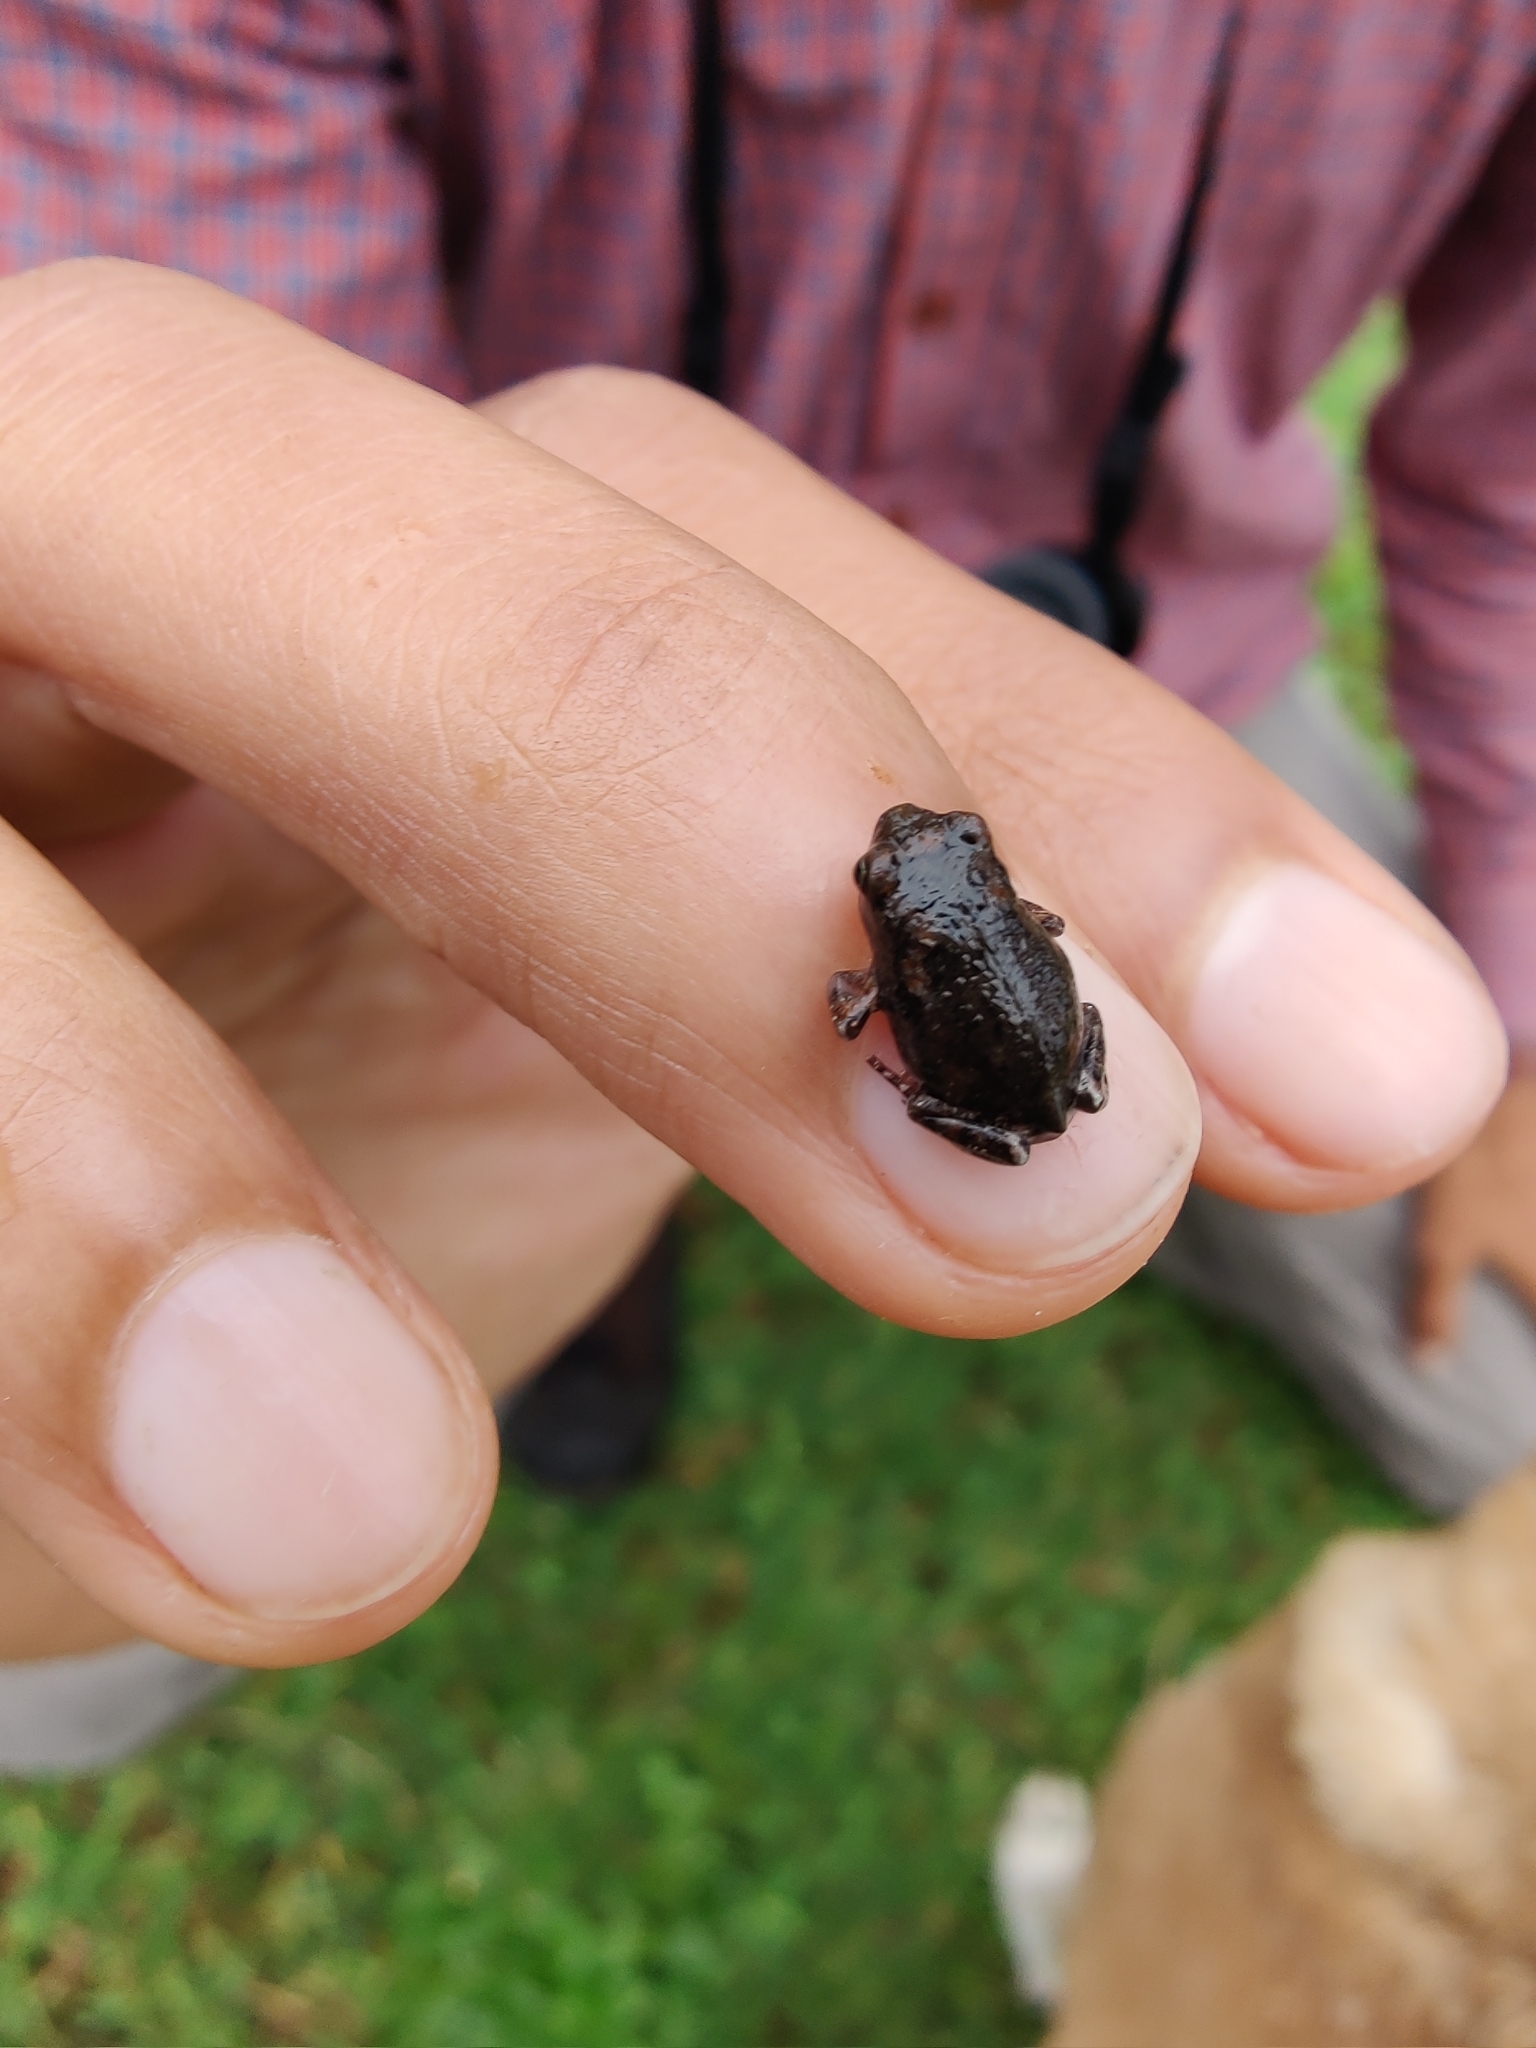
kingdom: Animalia
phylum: Chordata
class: Amphibia
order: Anura
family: Microhylidae
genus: Uperodon
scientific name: Uperodon taprobanicus
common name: Ceylon kaloula
